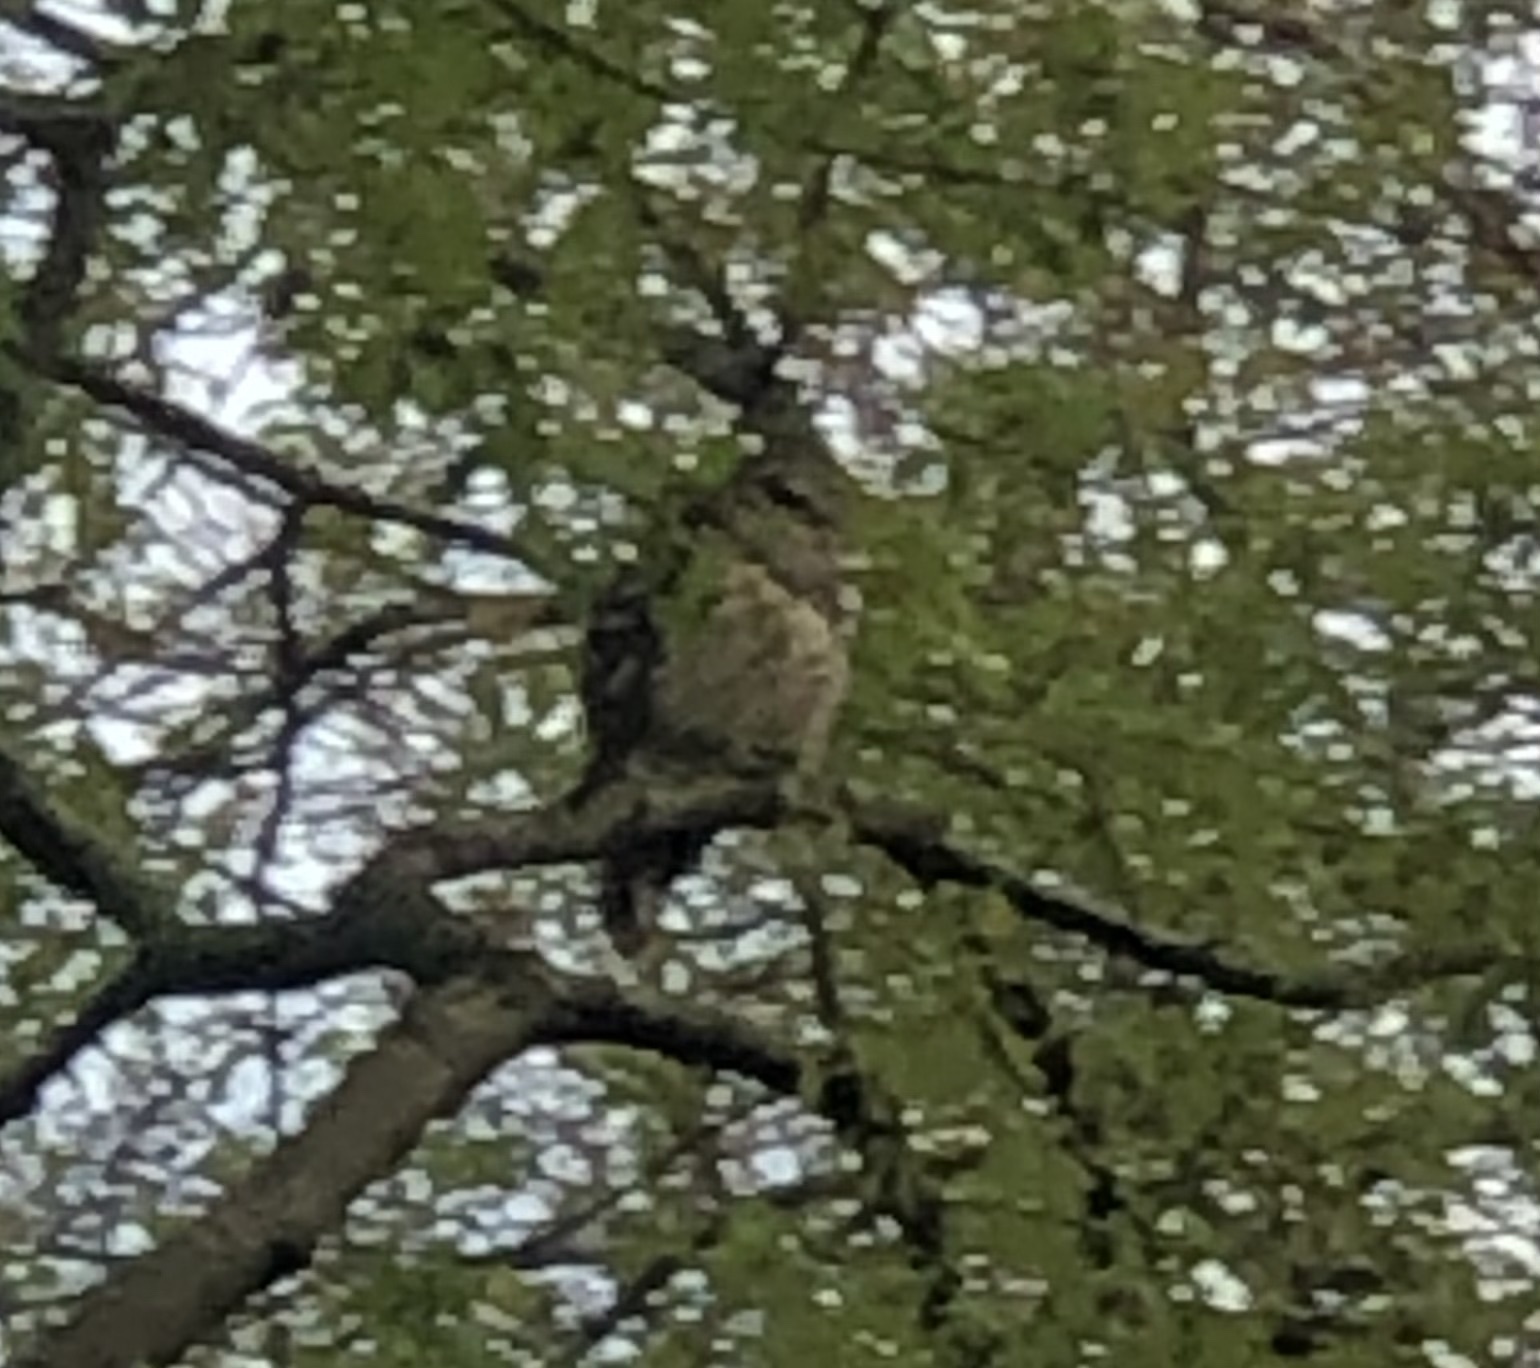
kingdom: Animalia
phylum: Chordata
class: Aves
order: Strigiformes
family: Strigidae
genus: Strix
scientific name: Strix varia
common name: Barred owl
